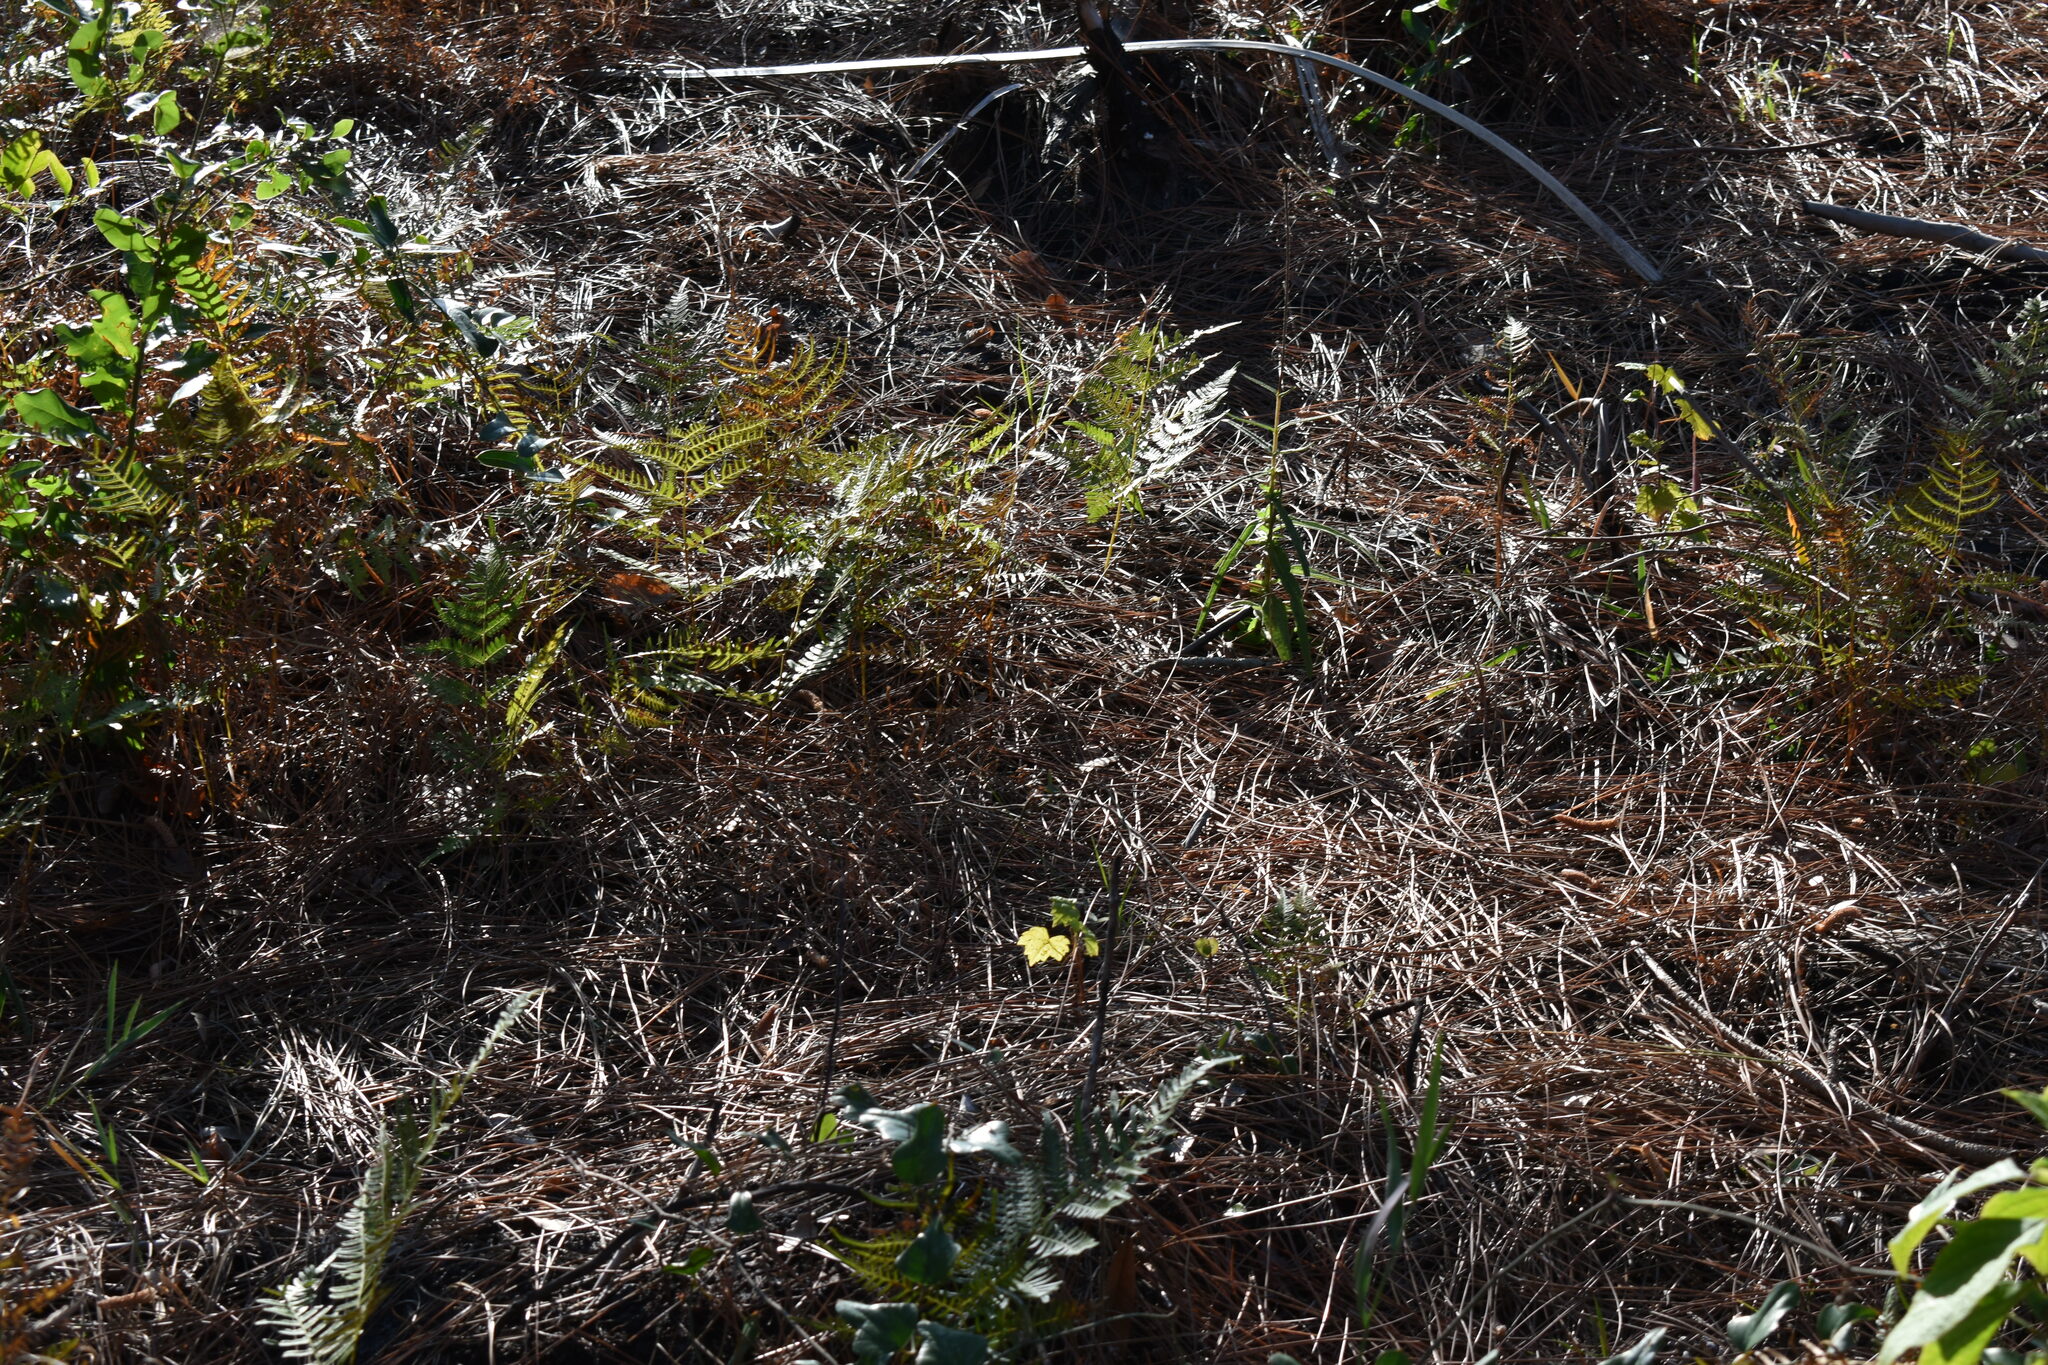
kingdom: Plantae
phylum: Tracheophyta
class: Polypodiopsida
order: Polypodiales
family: Dennstaedtiaceae
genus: Pteridium
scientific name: Pteridium
